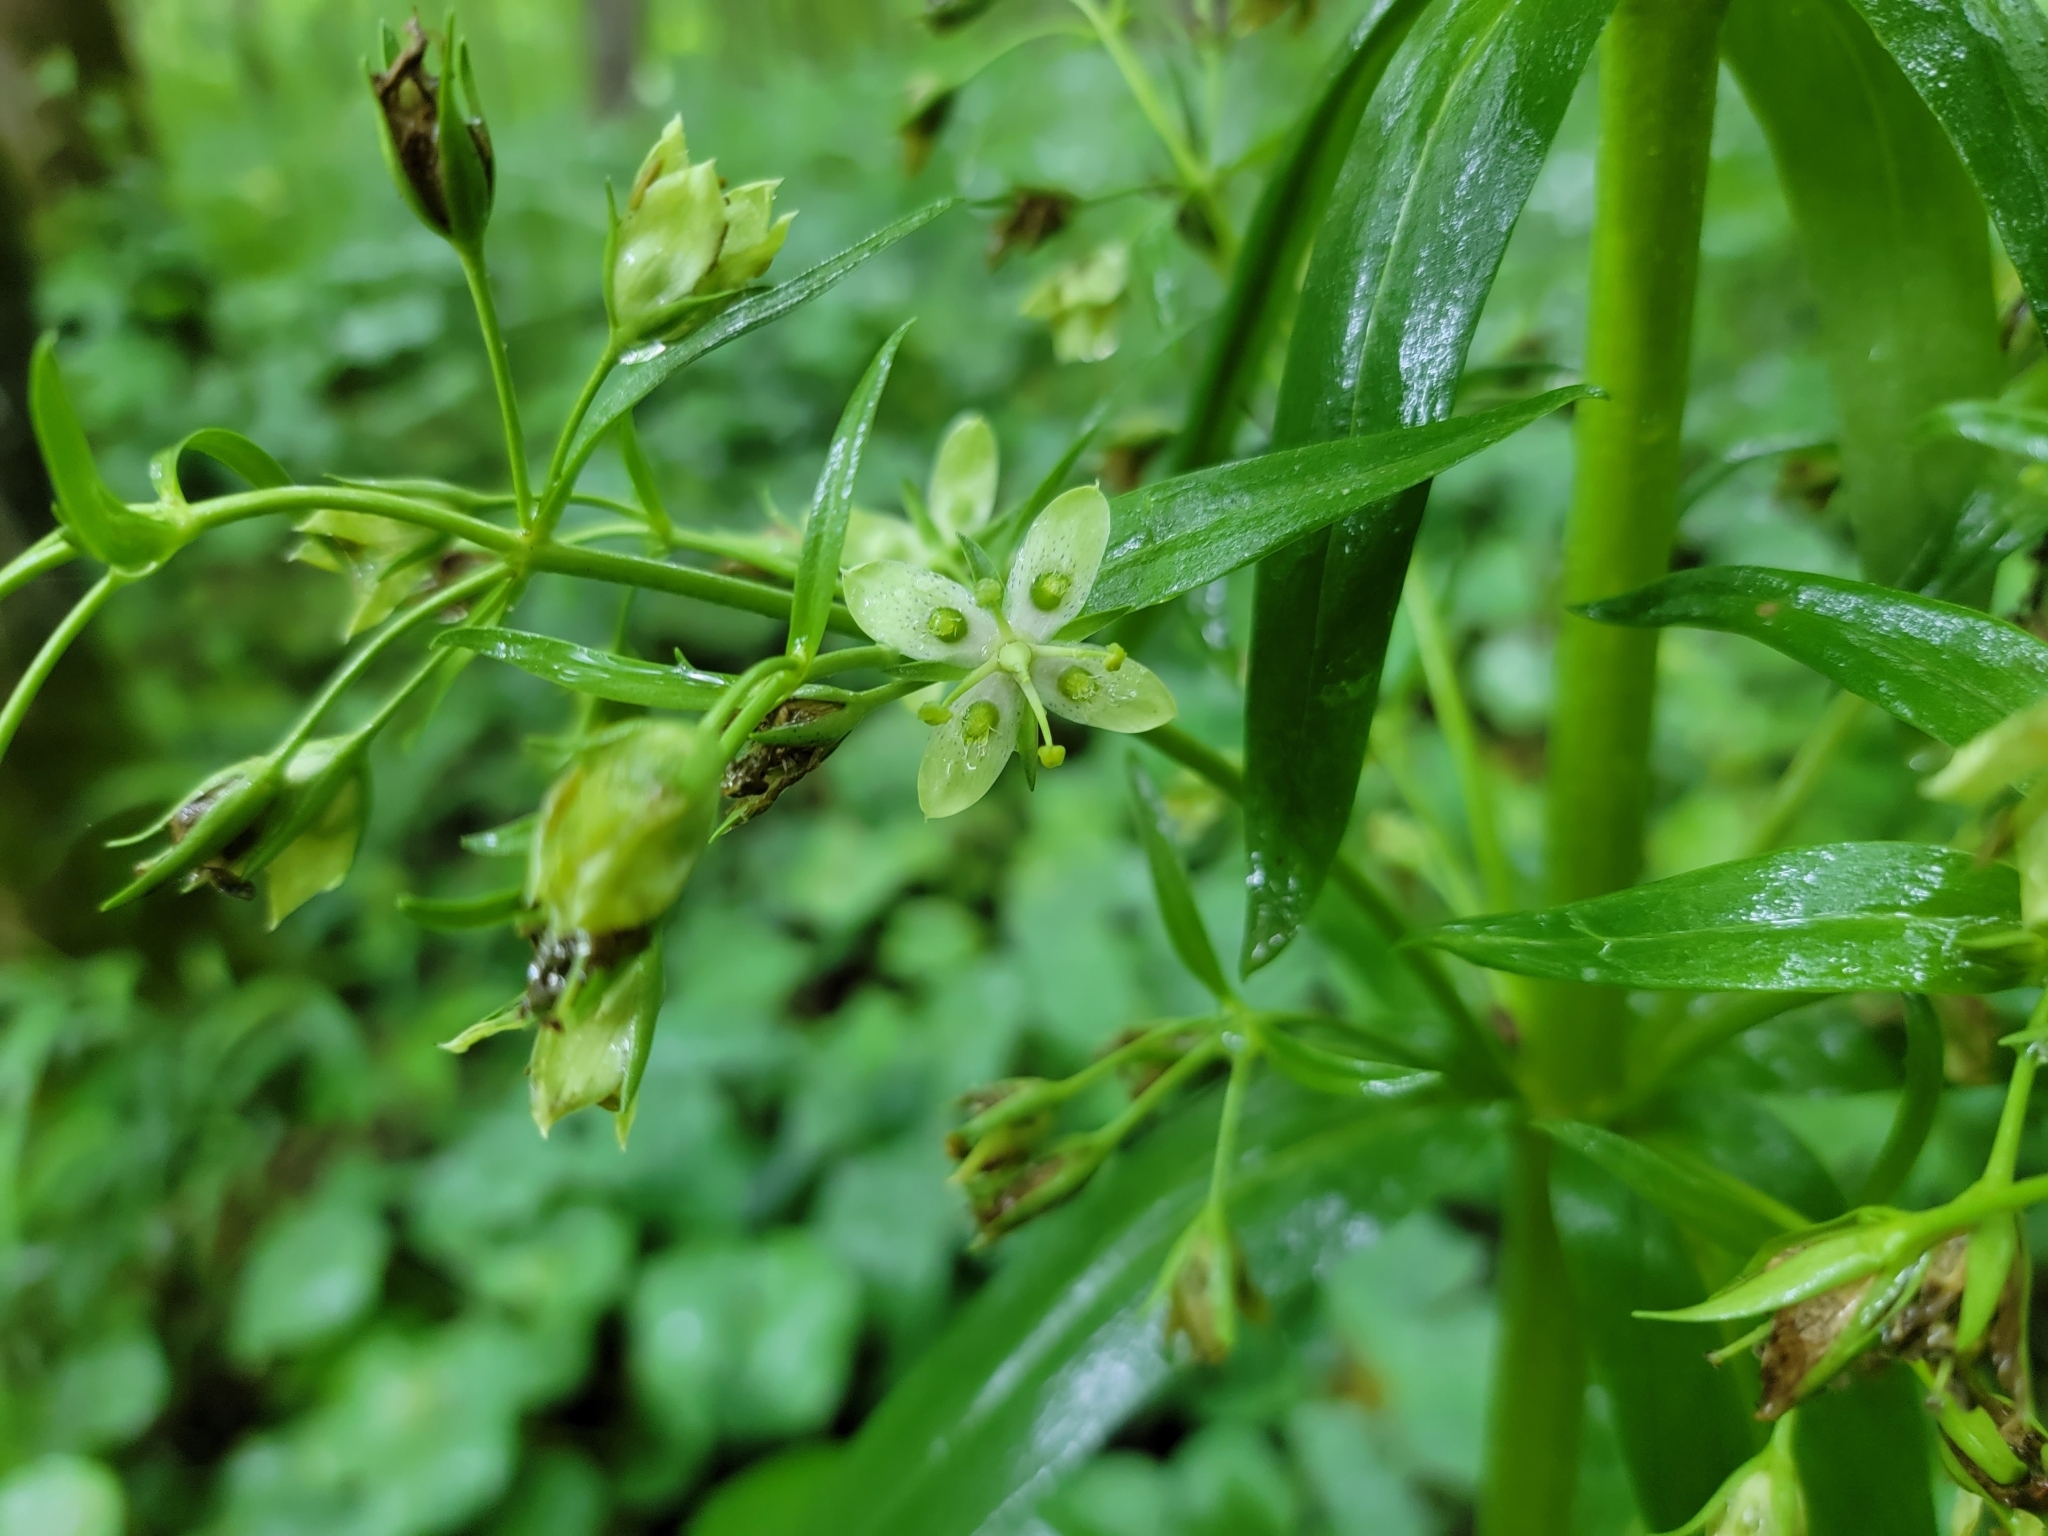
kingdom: Plantae
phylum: Tracheophyta
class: Magnoliopsida
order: Gentianales
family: Gentianaceae
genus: Frasera
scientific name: Frasera caroliniensis
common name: American columbo
